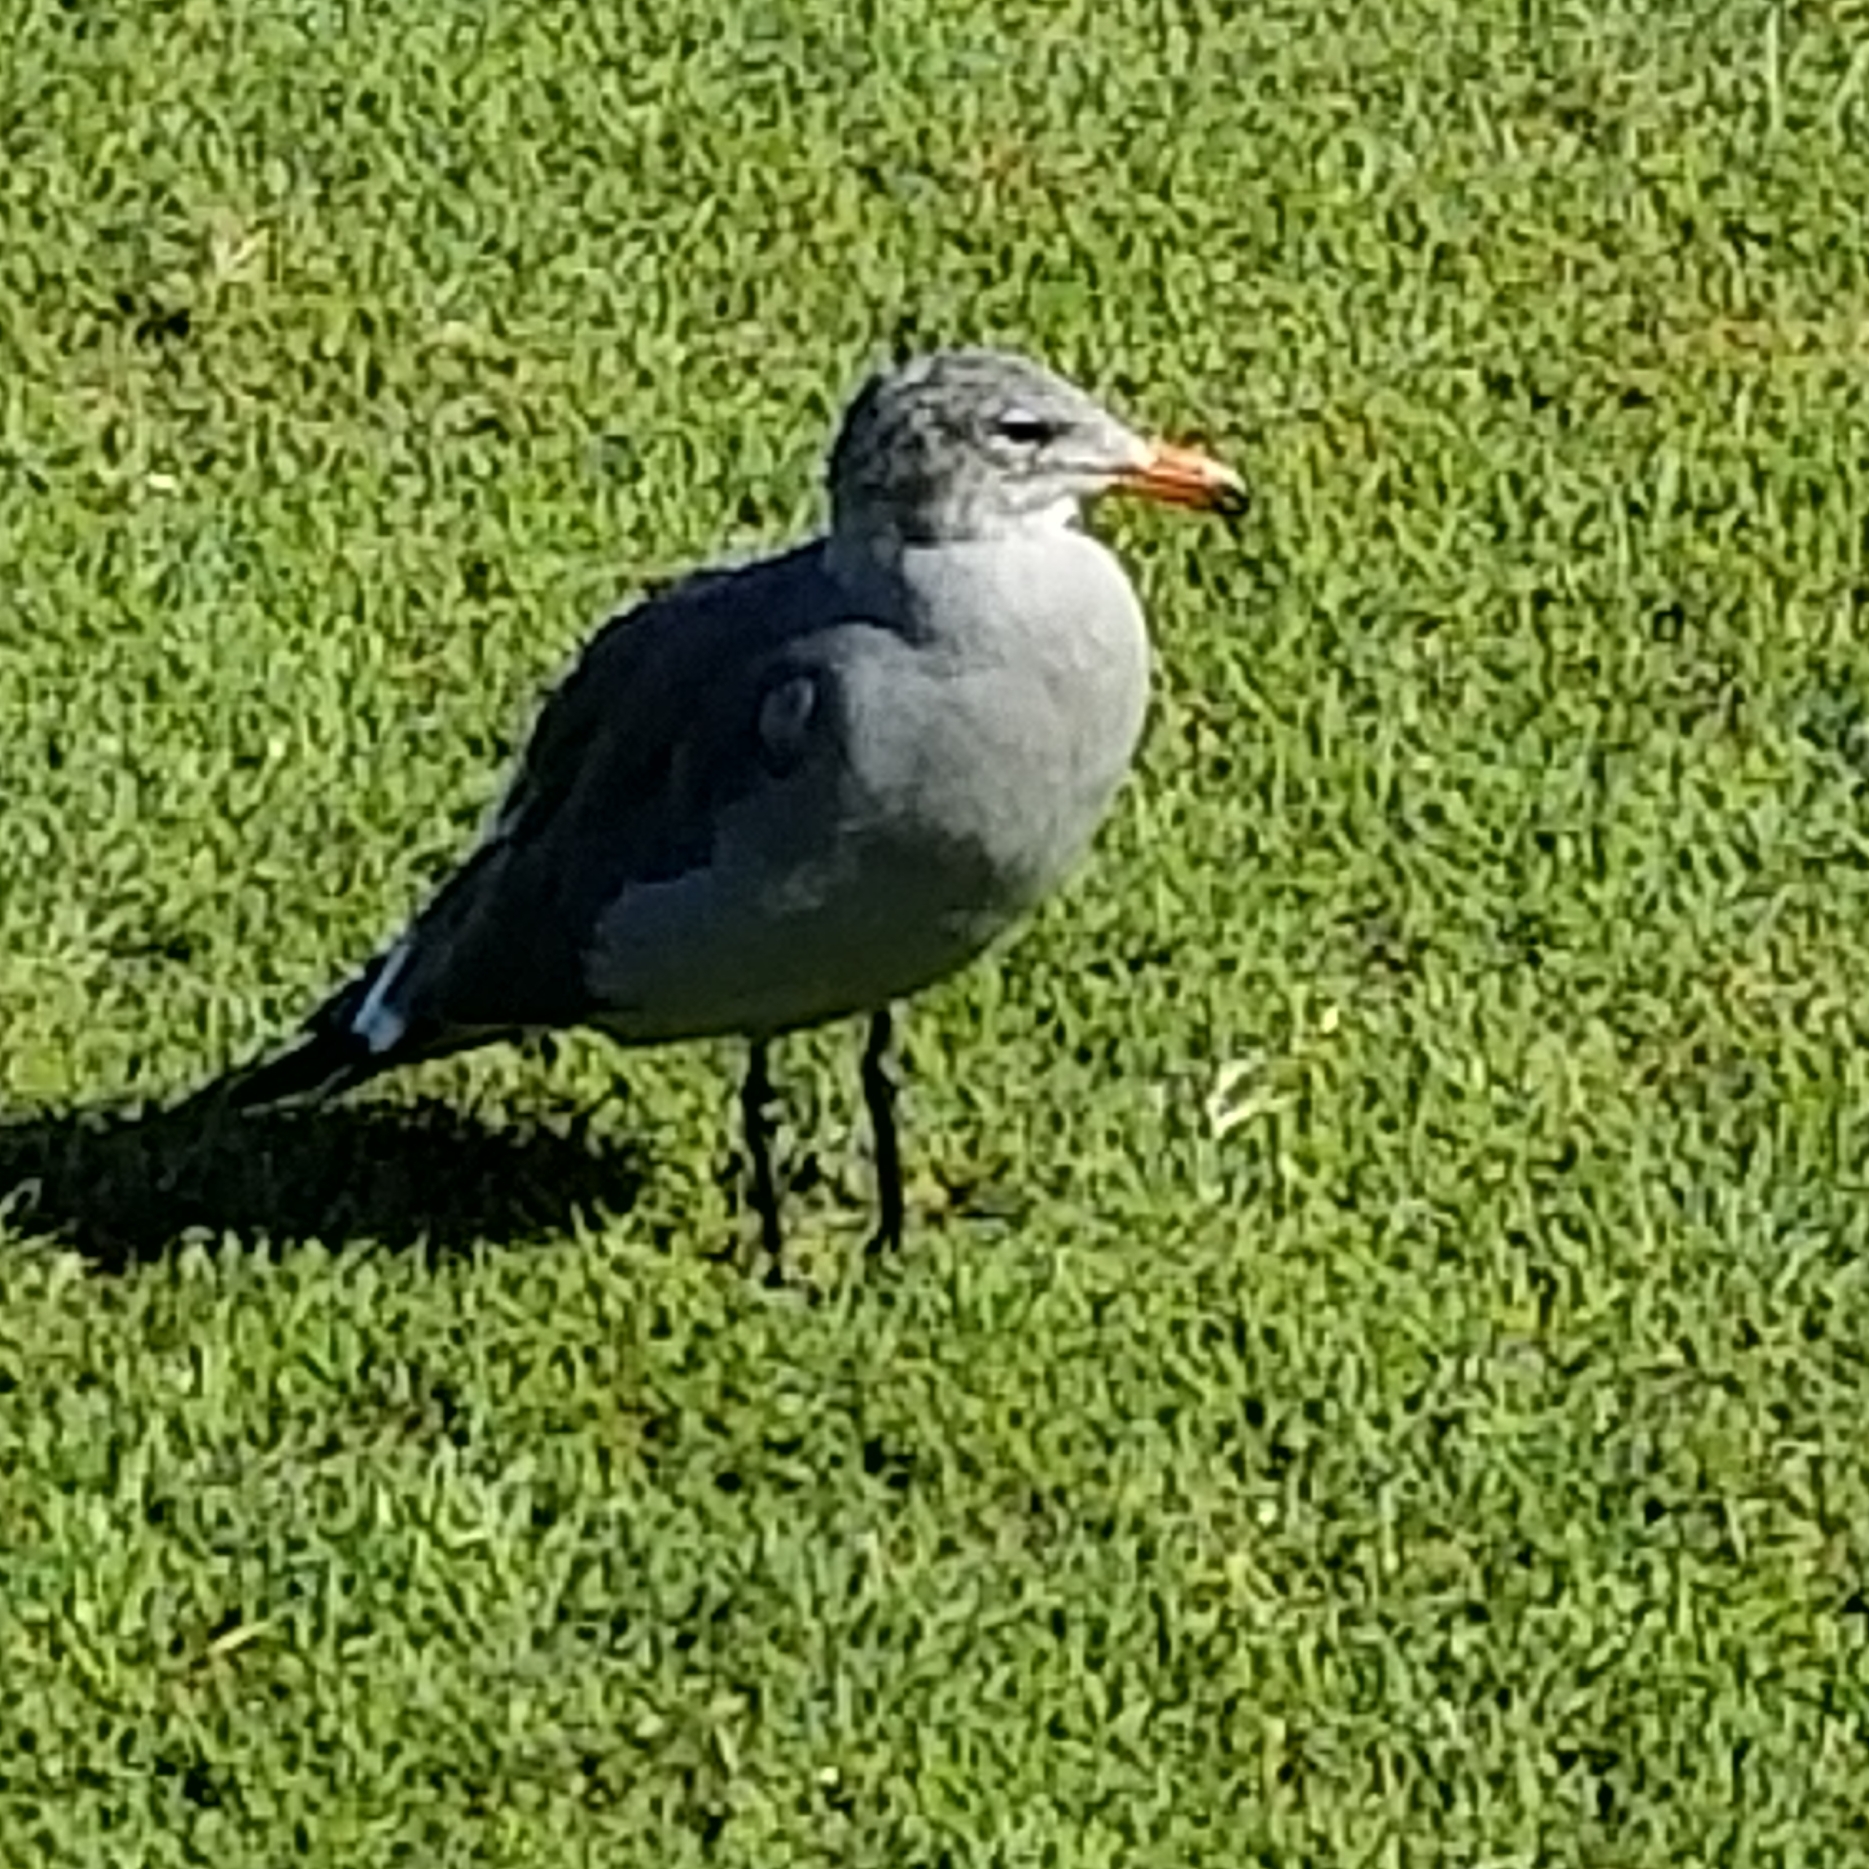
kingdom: Animalia
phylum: Chordata
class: Aves
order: Charadriiformes
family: Laridae
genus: Larus
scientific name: Larus heermanni
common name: Heermann's gull
